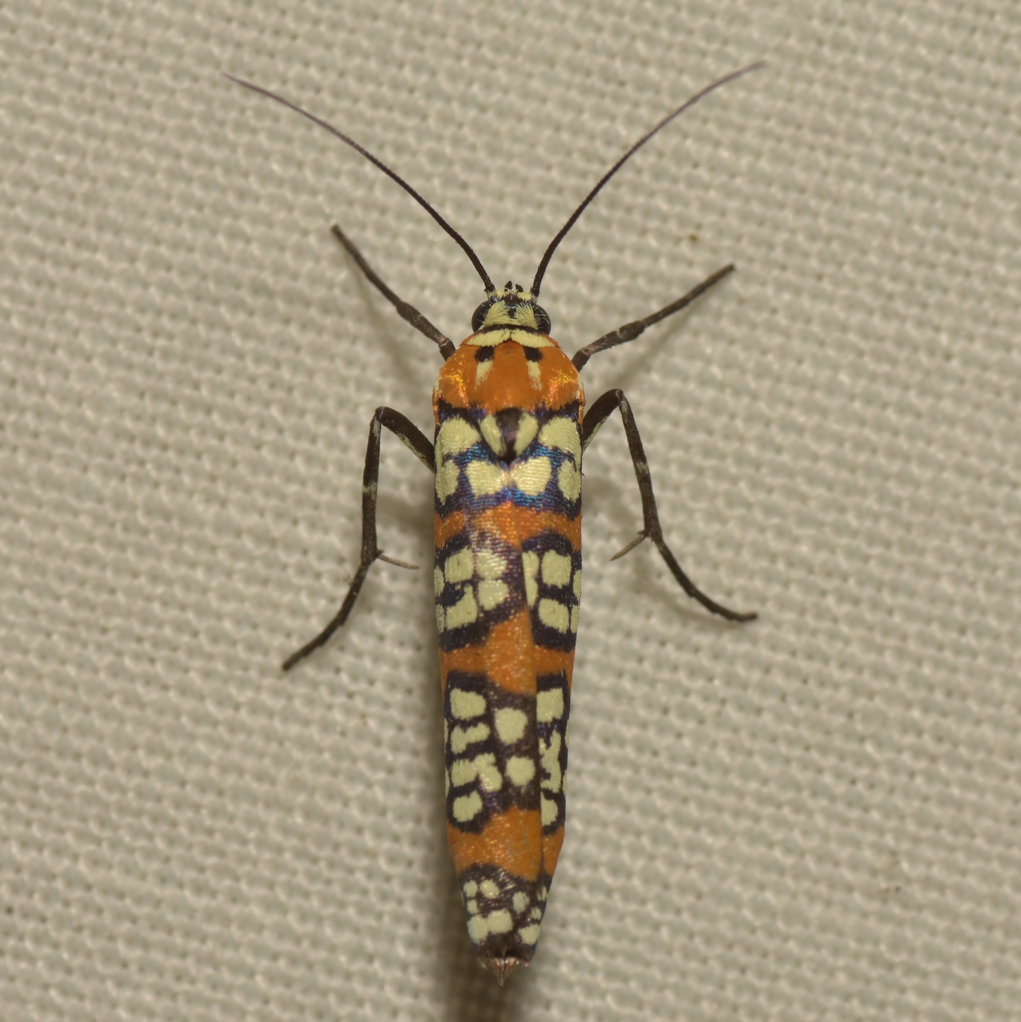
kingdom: Animalia
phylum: Arthropoda
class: Insecta
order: Lepidoptera
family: Attevidae
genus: Atteva
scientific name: Atteva punctella
